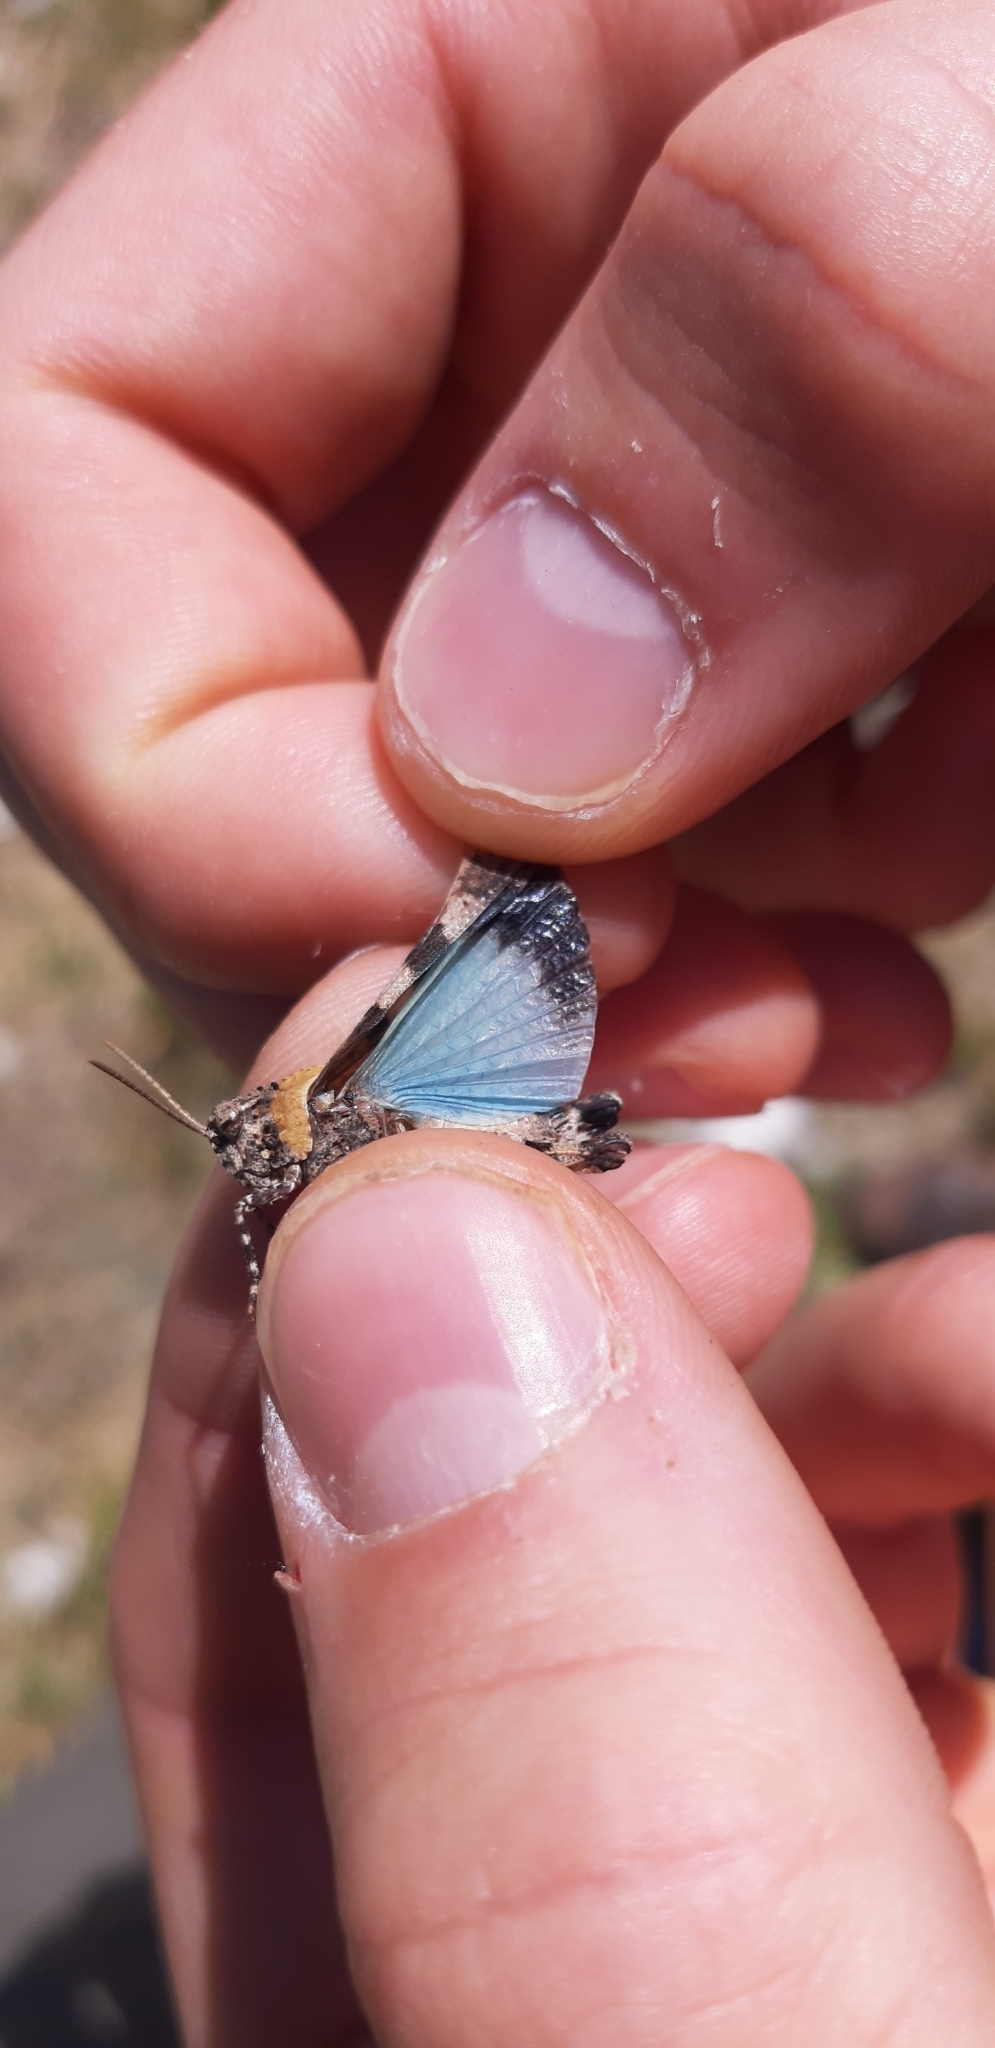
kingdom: Animalia
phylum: Arthropoda
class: Insecta
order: Orthoptera
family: Acrididae
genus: Oedipoda
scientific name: Oedipoda caerulescens
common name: Blue-winged grasshopper
